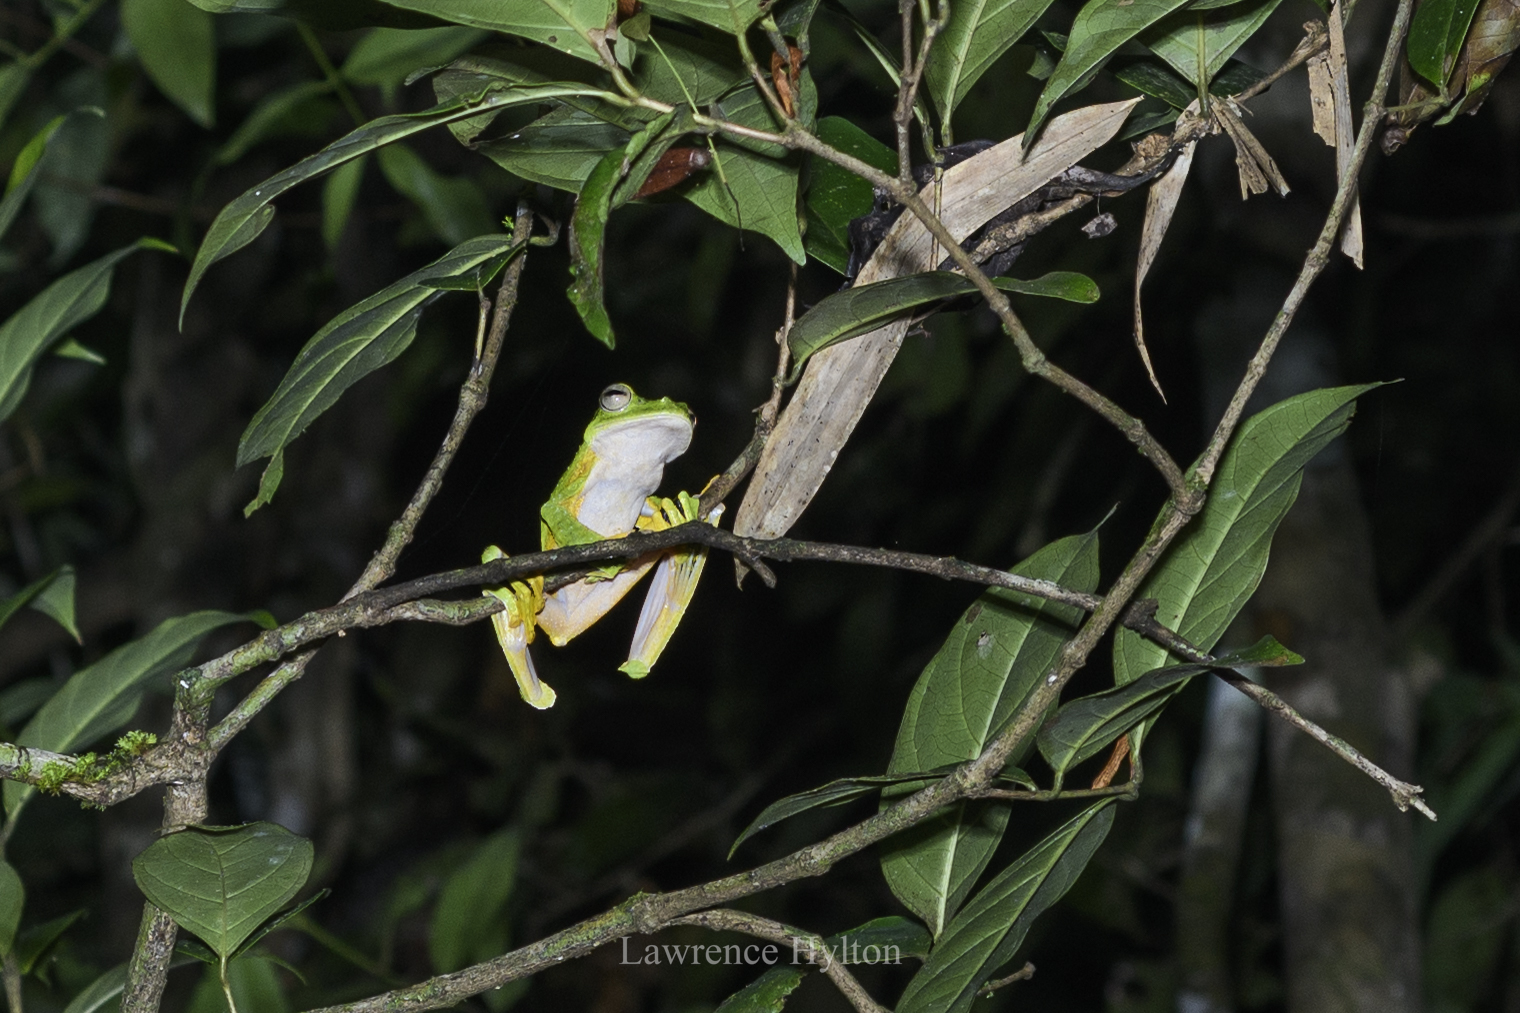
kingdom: Animalia
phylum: Chordata
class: Amphibia
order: Anura
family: Rhacophoridae
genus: Rhacophorus
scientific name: Rhacophorus nigropalmatus
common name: Wallace’s flying frog
